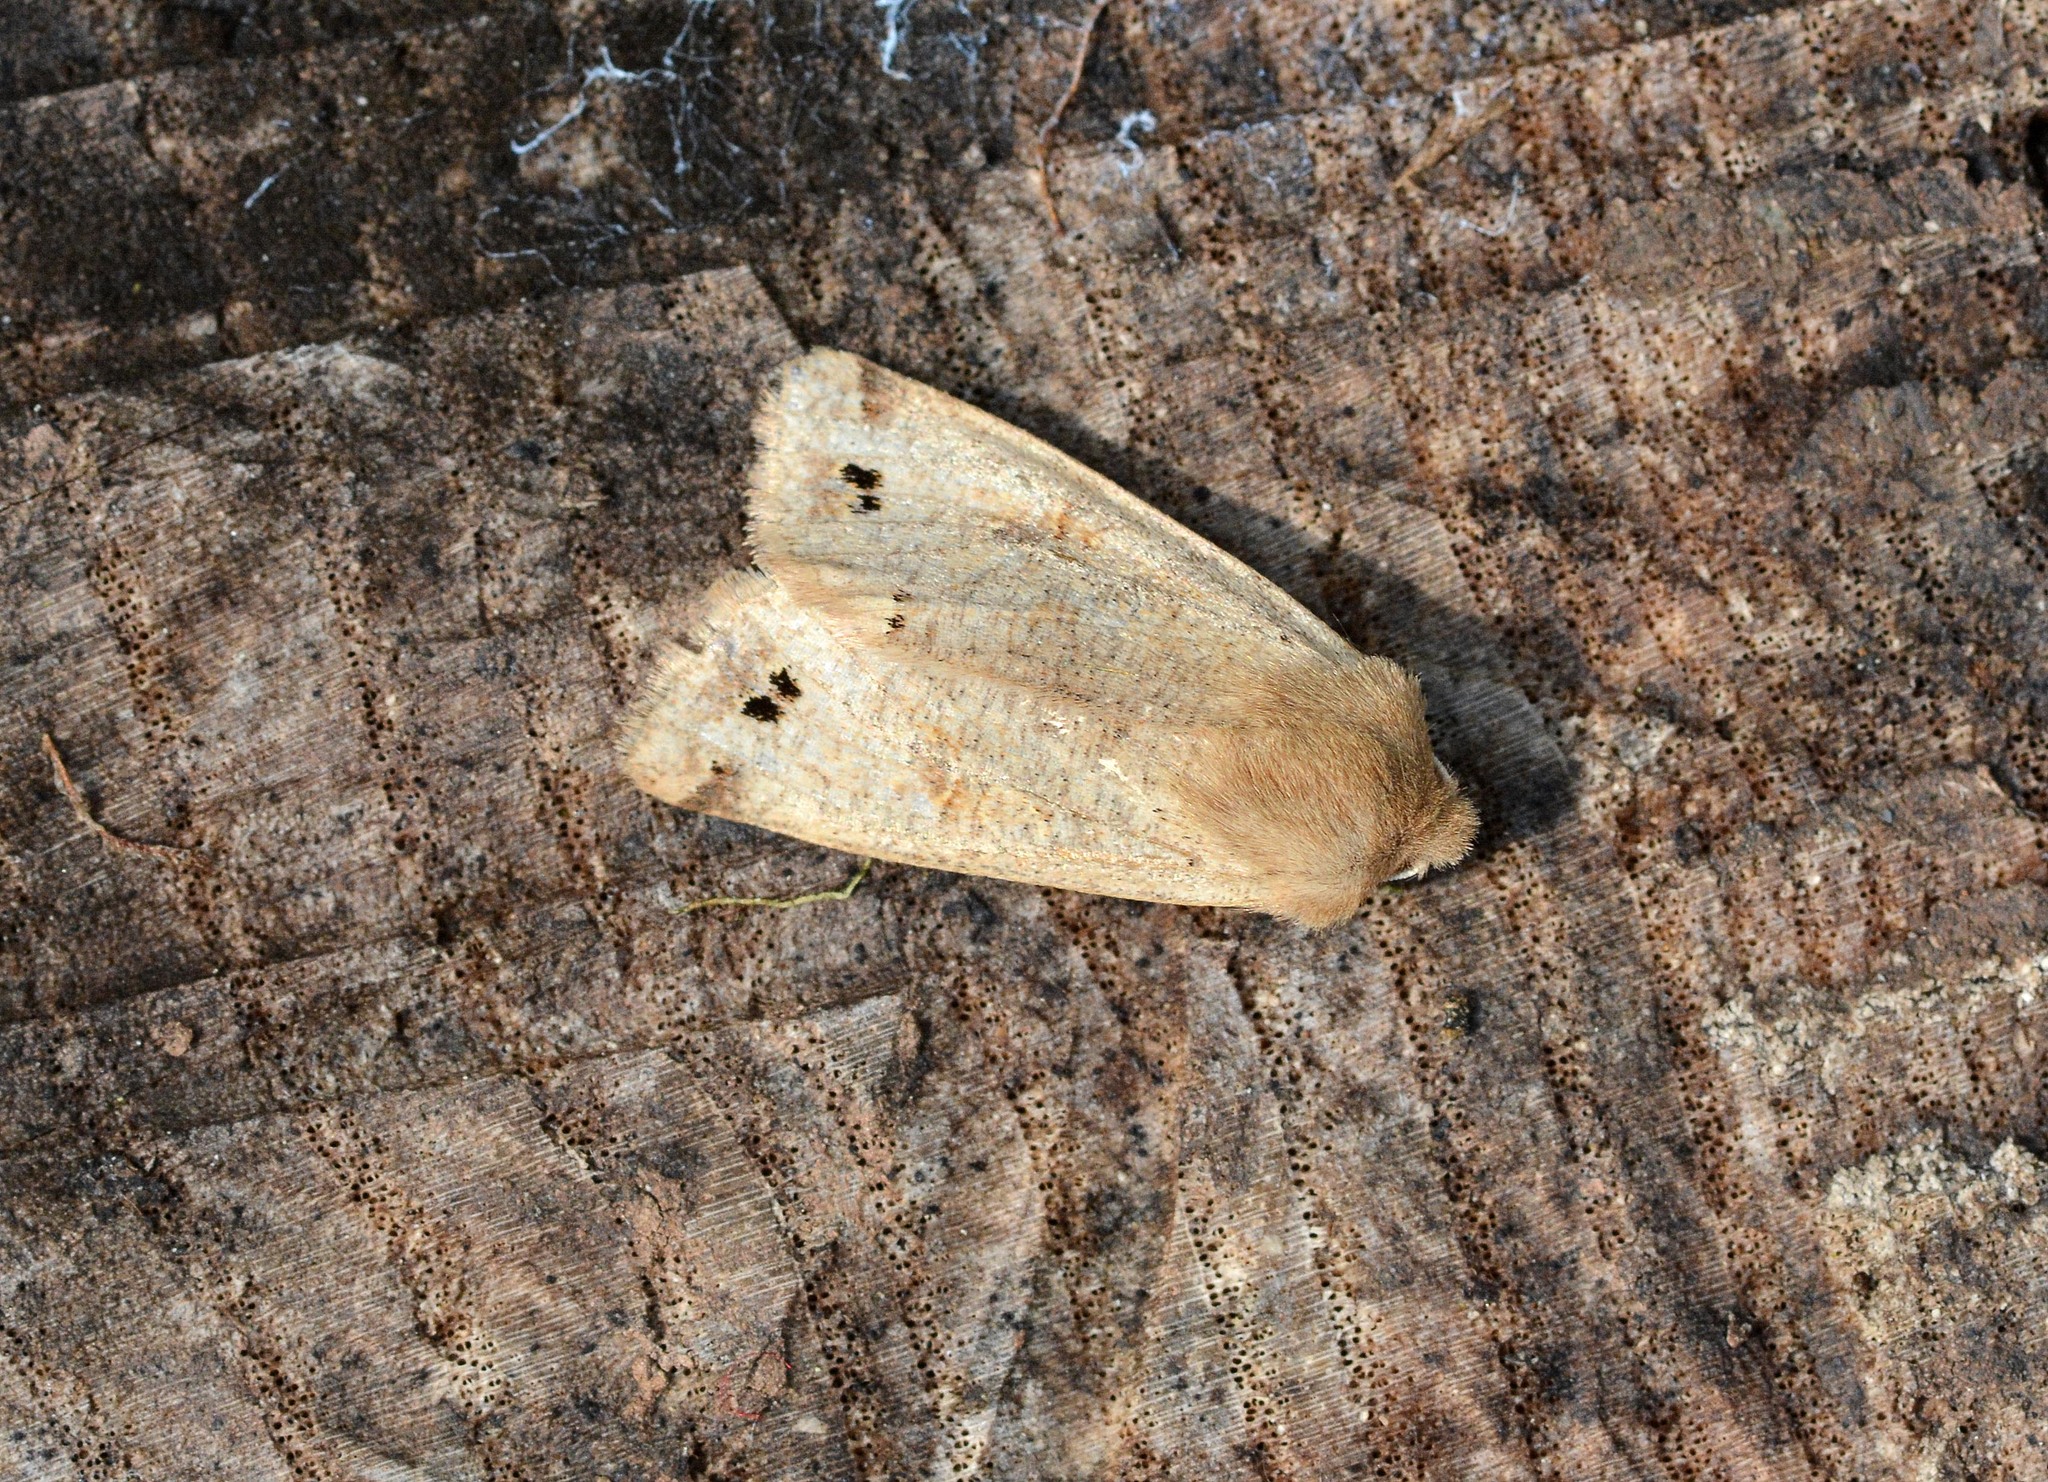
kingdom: Animalia
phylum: Arthropoda
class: Insecta
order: Lepidoptera
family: Noctuidae
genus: Anorthoa
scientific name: Anorthoa munda
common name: Twin-spotted quaker
